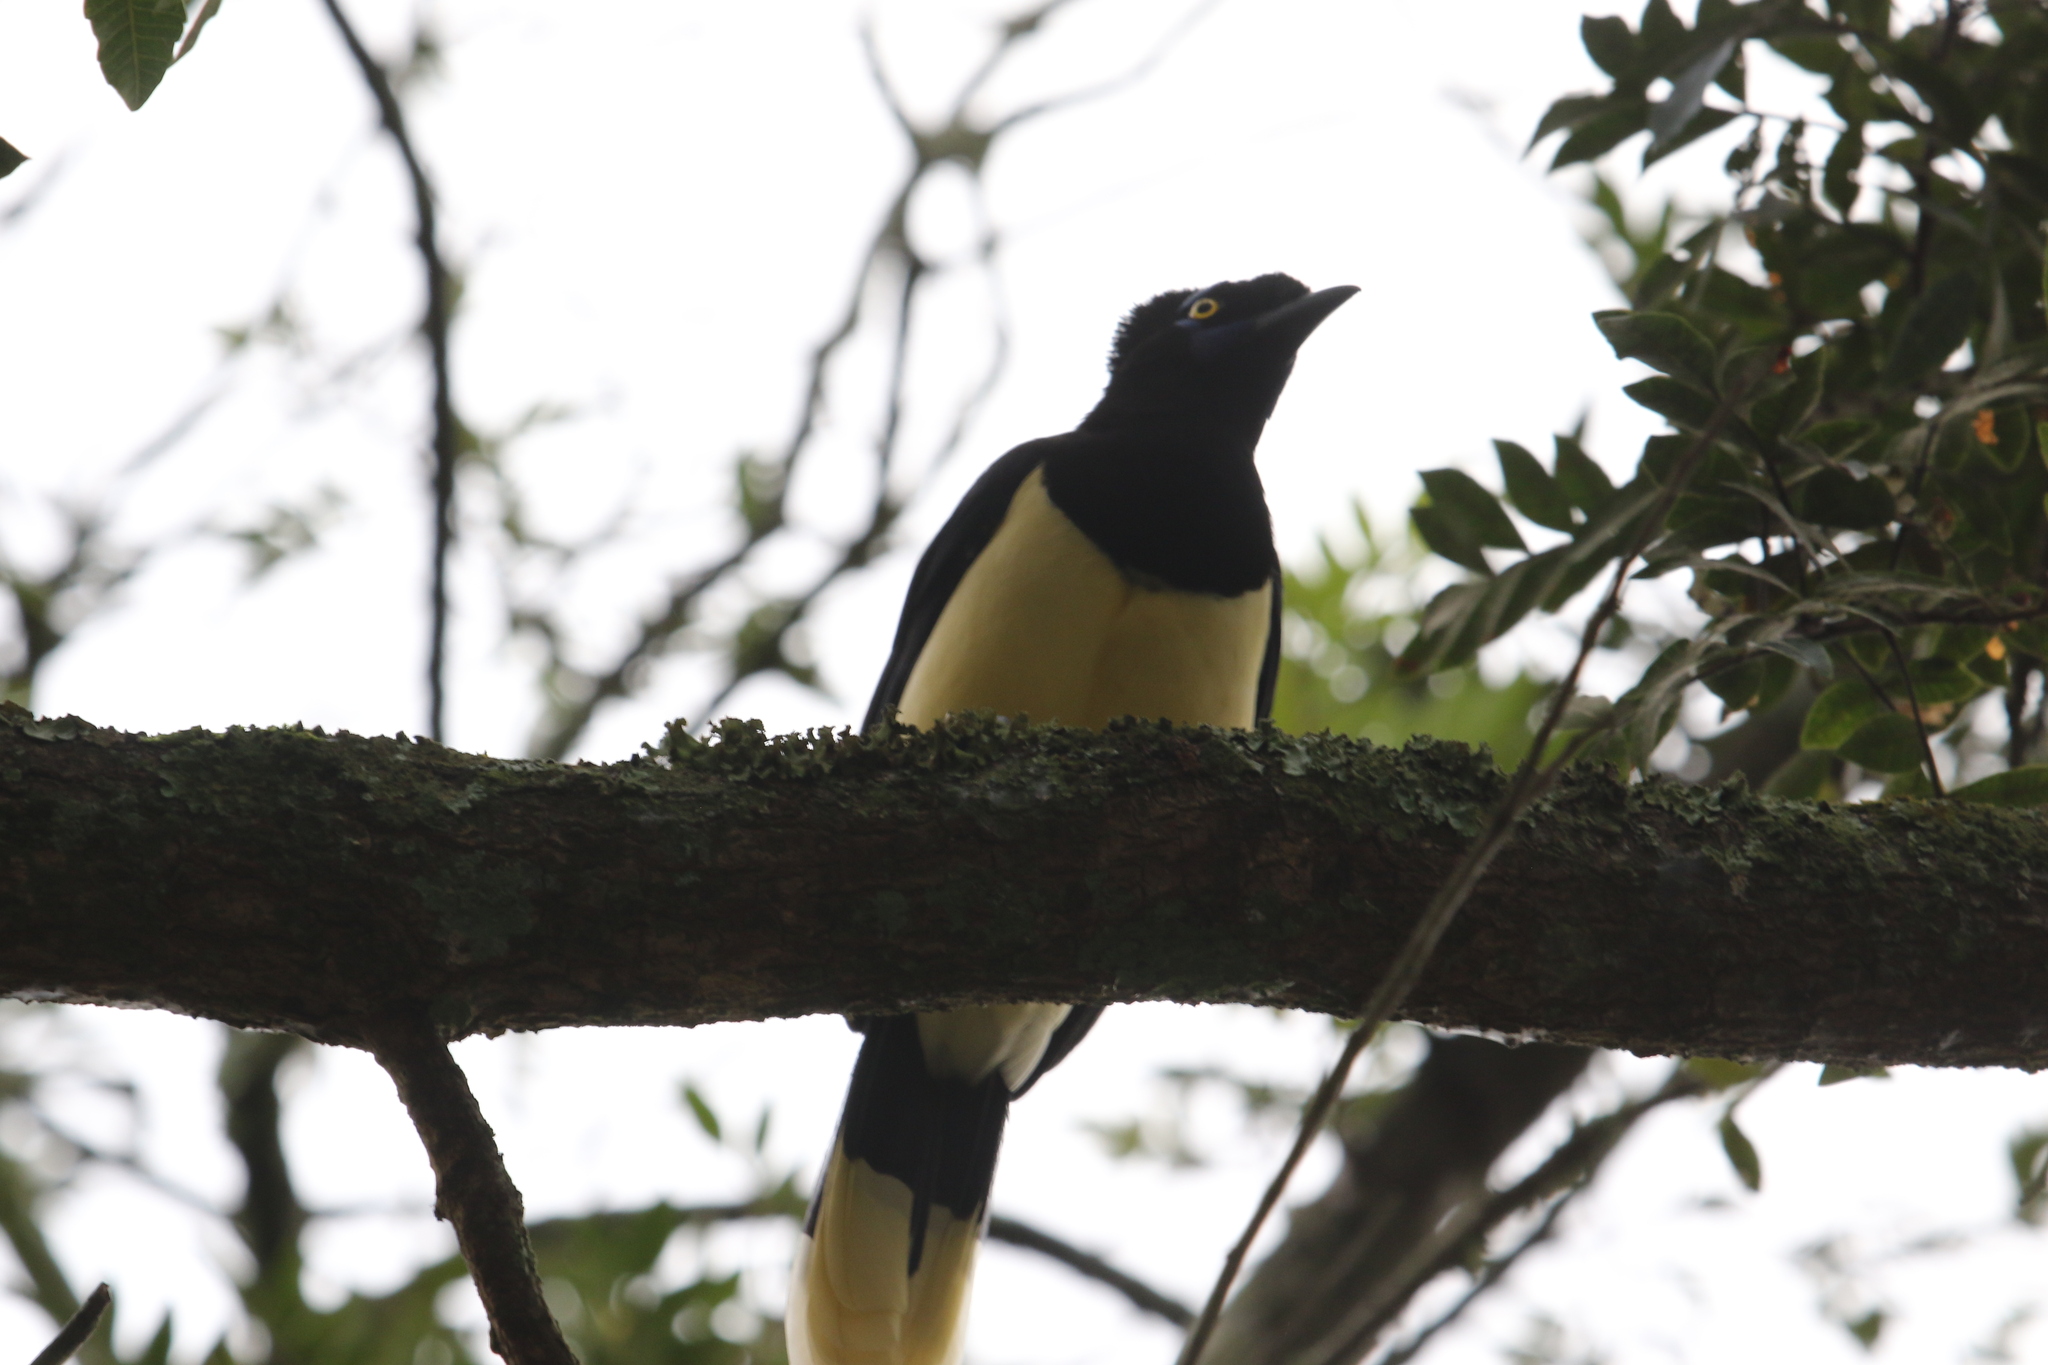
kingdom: Animalia
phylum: Chordata
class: Aves
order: Passeriformes
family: Corvidae
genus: Cyanocorax
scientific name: Cyanocorax chrysops
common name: Plush-crested jay
